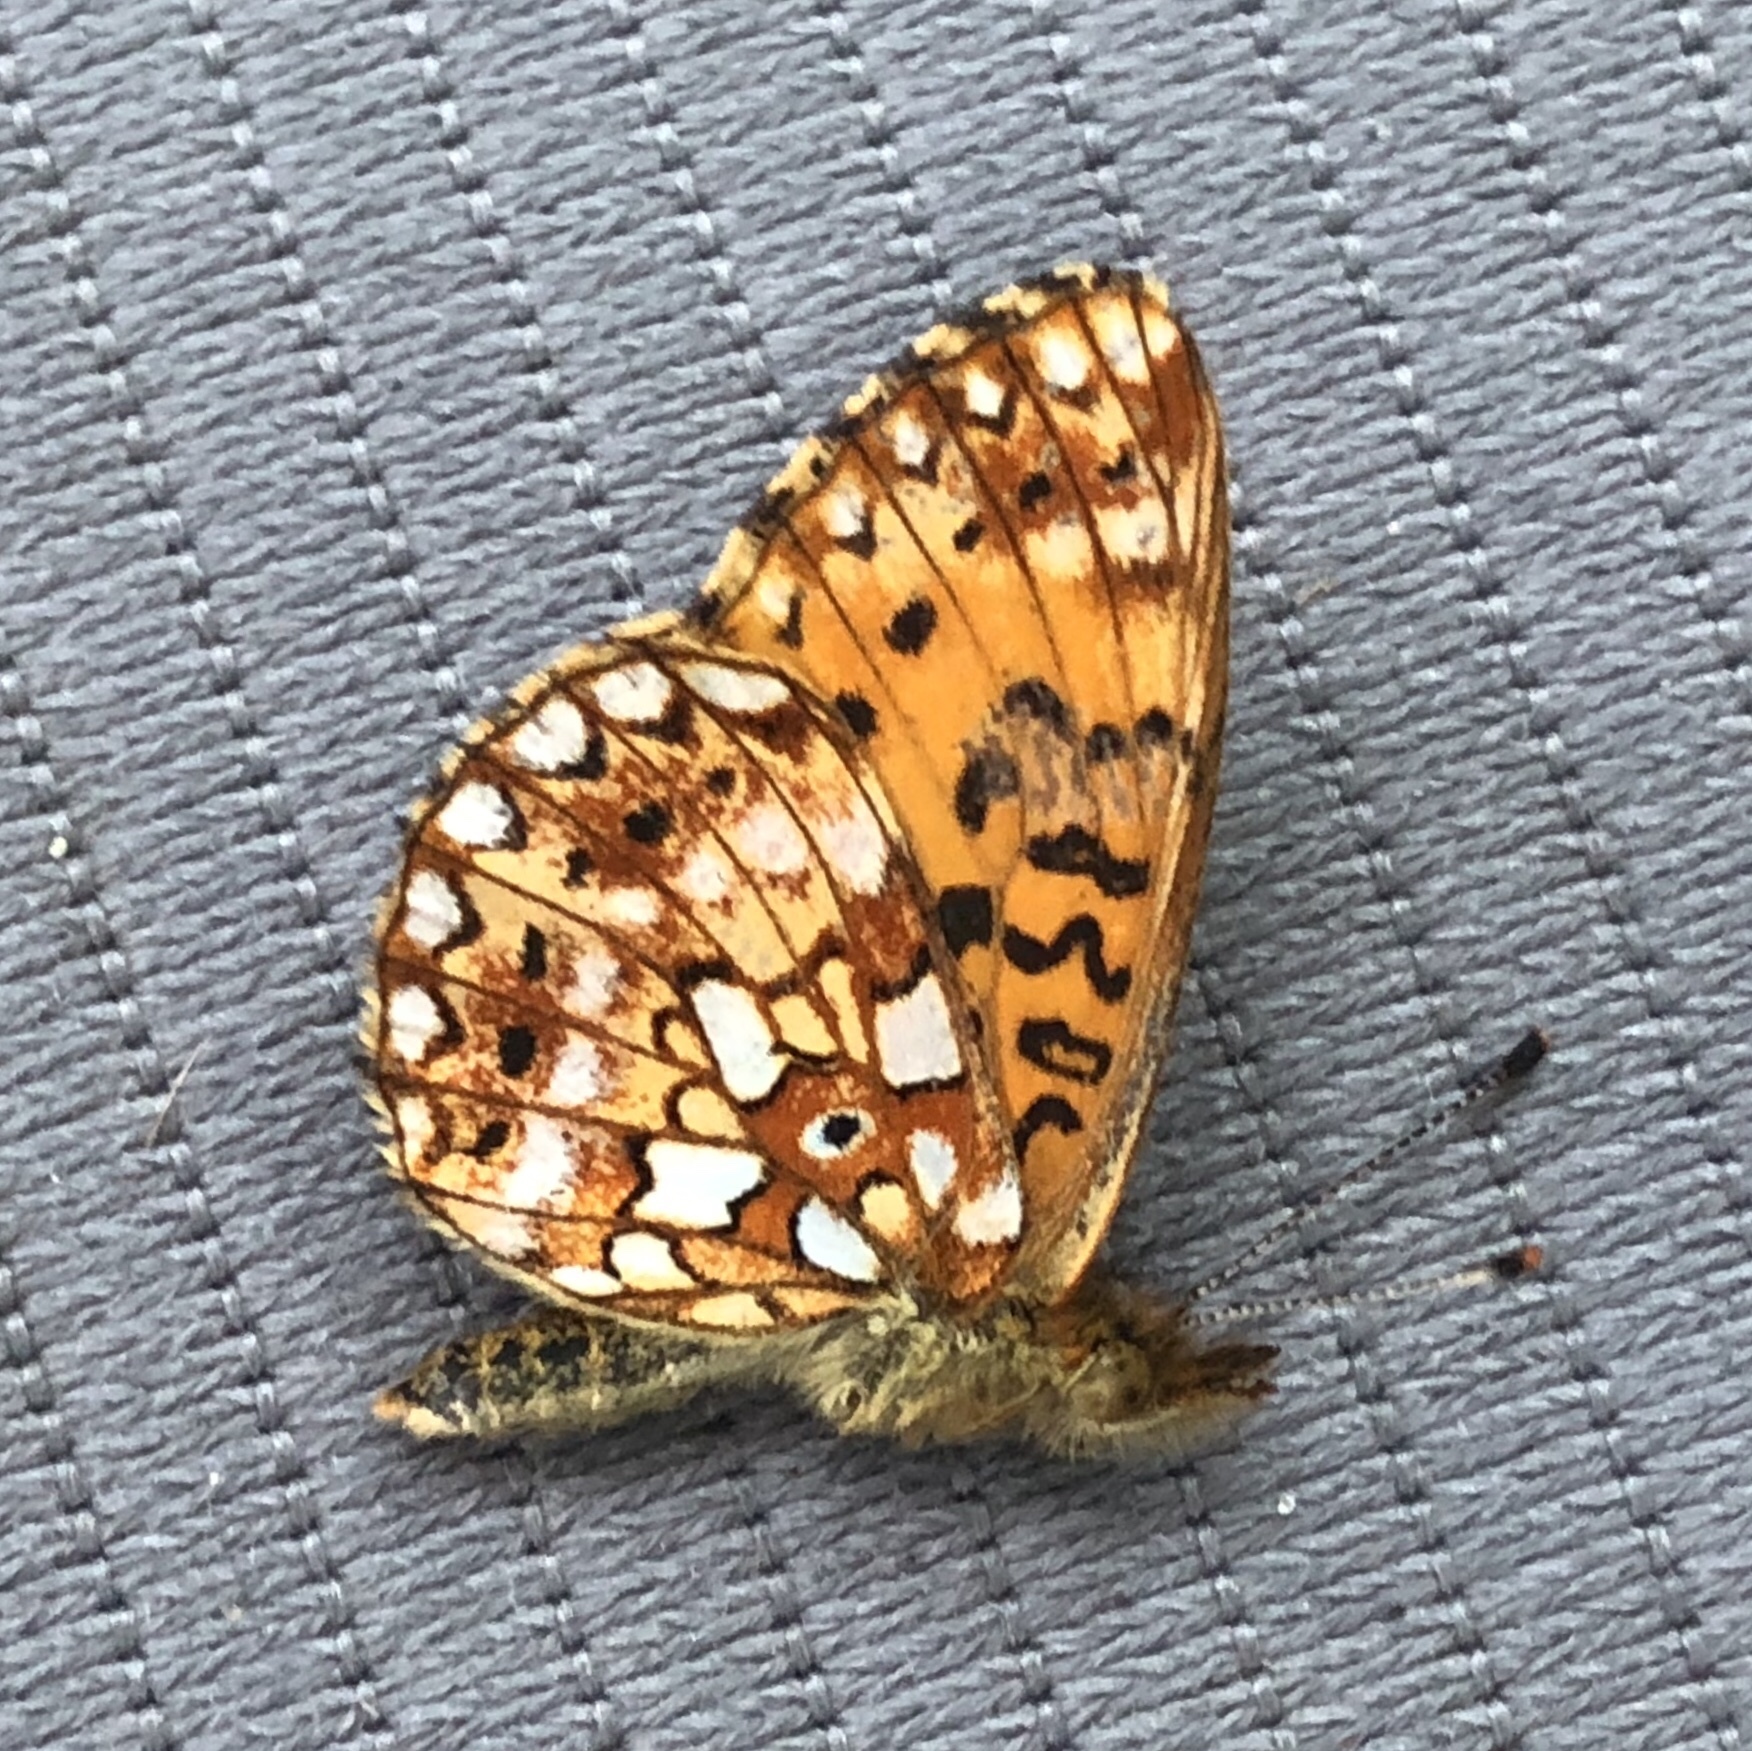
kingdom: Animalia
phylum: Arthropoda
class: Insecta
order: Lepidoptera
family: Nymphalidae
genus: Boloria
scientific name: Boloria
